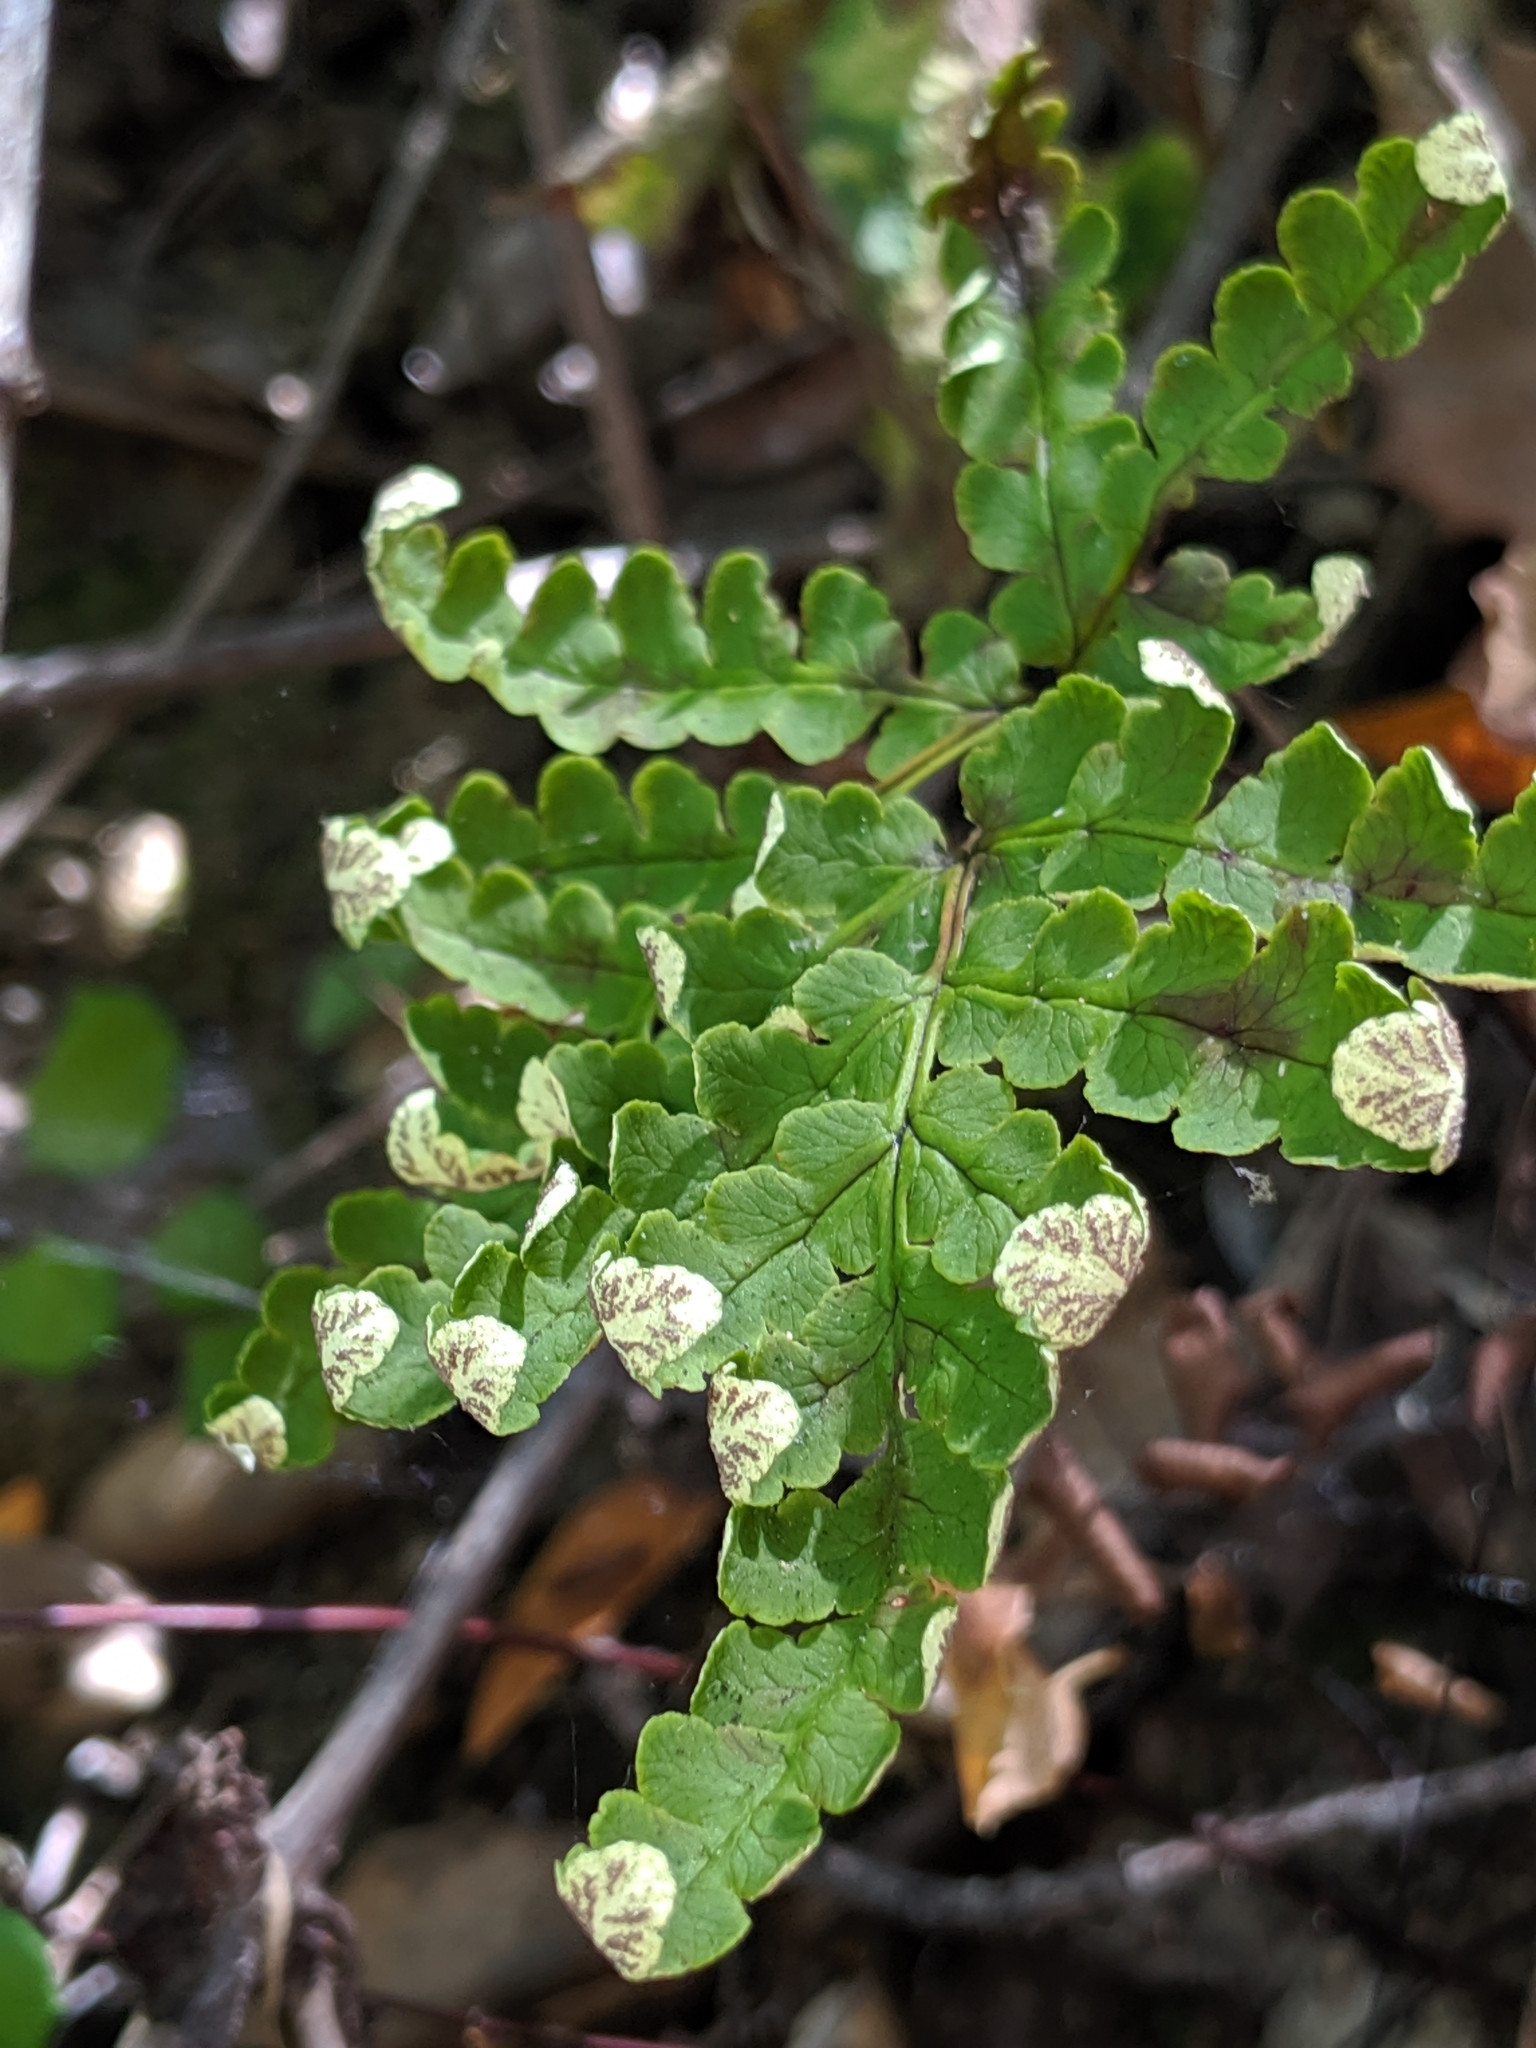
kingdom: Plantae
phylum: Tracheophyta
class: Polypodiopsida
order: Polypodiales
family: Pteridaceae
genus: Pentagramma
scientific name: Pentagramma triangularis
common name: Gold fern
